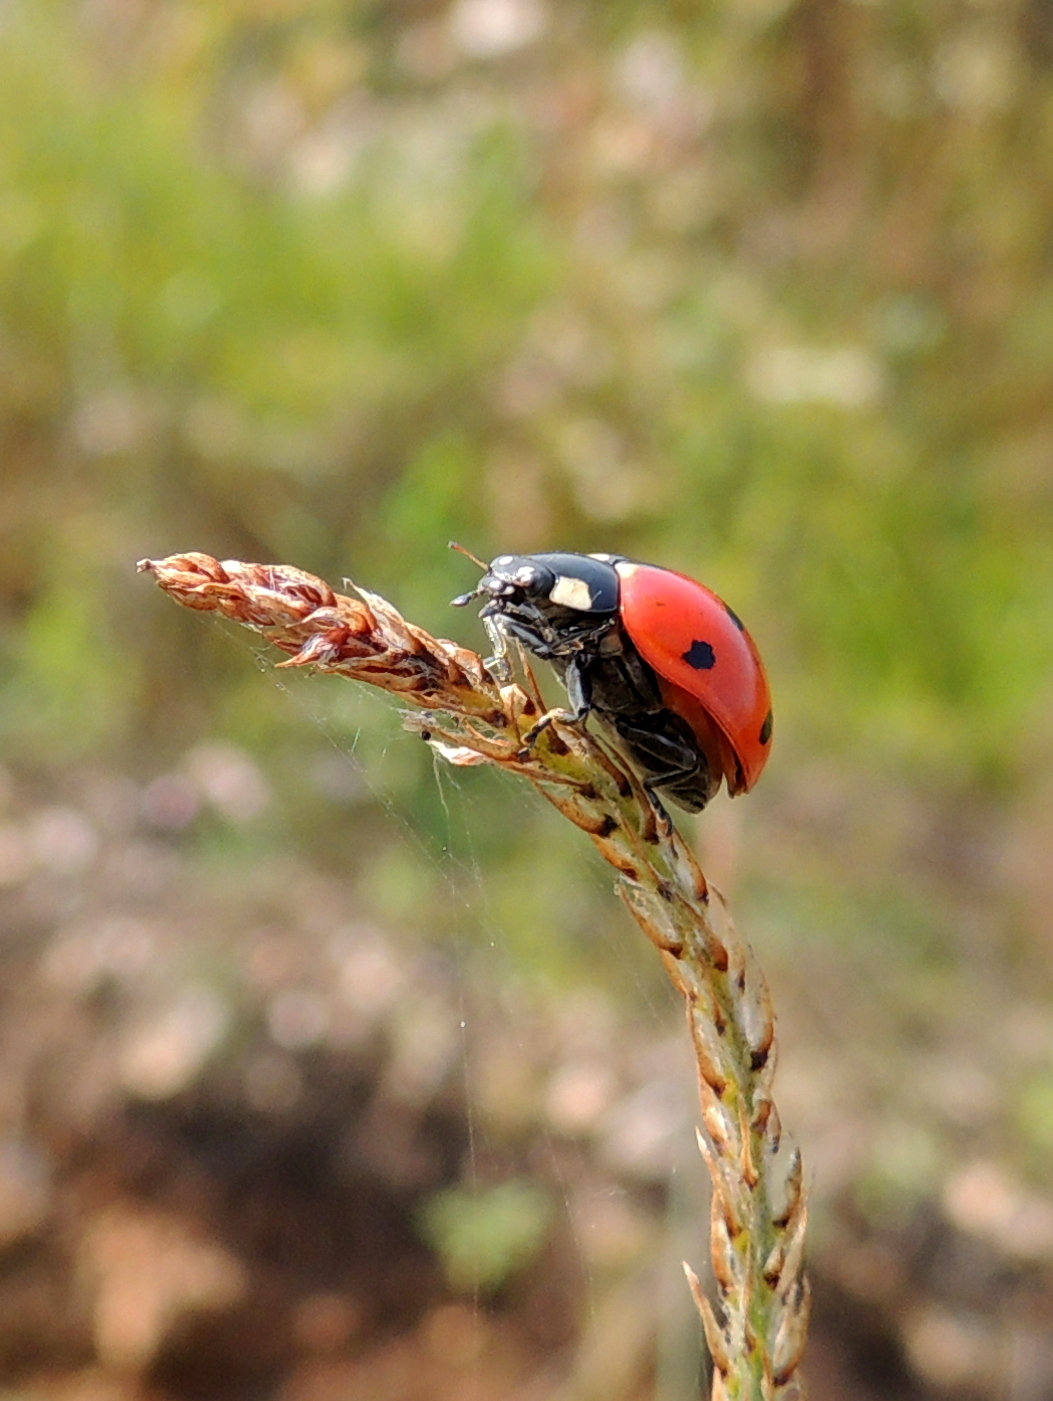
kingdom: Animalia
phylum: Arthropoda
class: Insecta
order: Coleoptera
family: Coccinellidae
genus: Coccinella
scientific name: Coccinella septempunctata
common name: Sevenspotted lady beetle
